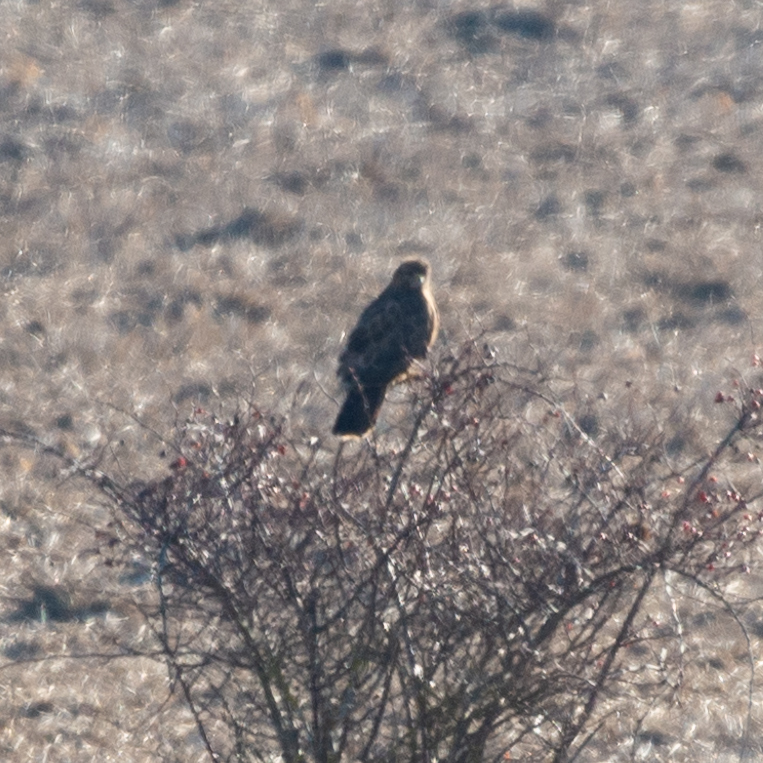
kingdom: Animalia
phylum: Chordata
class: Aves
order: Accipitriformes
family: Accipitridae
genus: Buteo
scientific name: Buteo buteo
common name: Common buzzard
